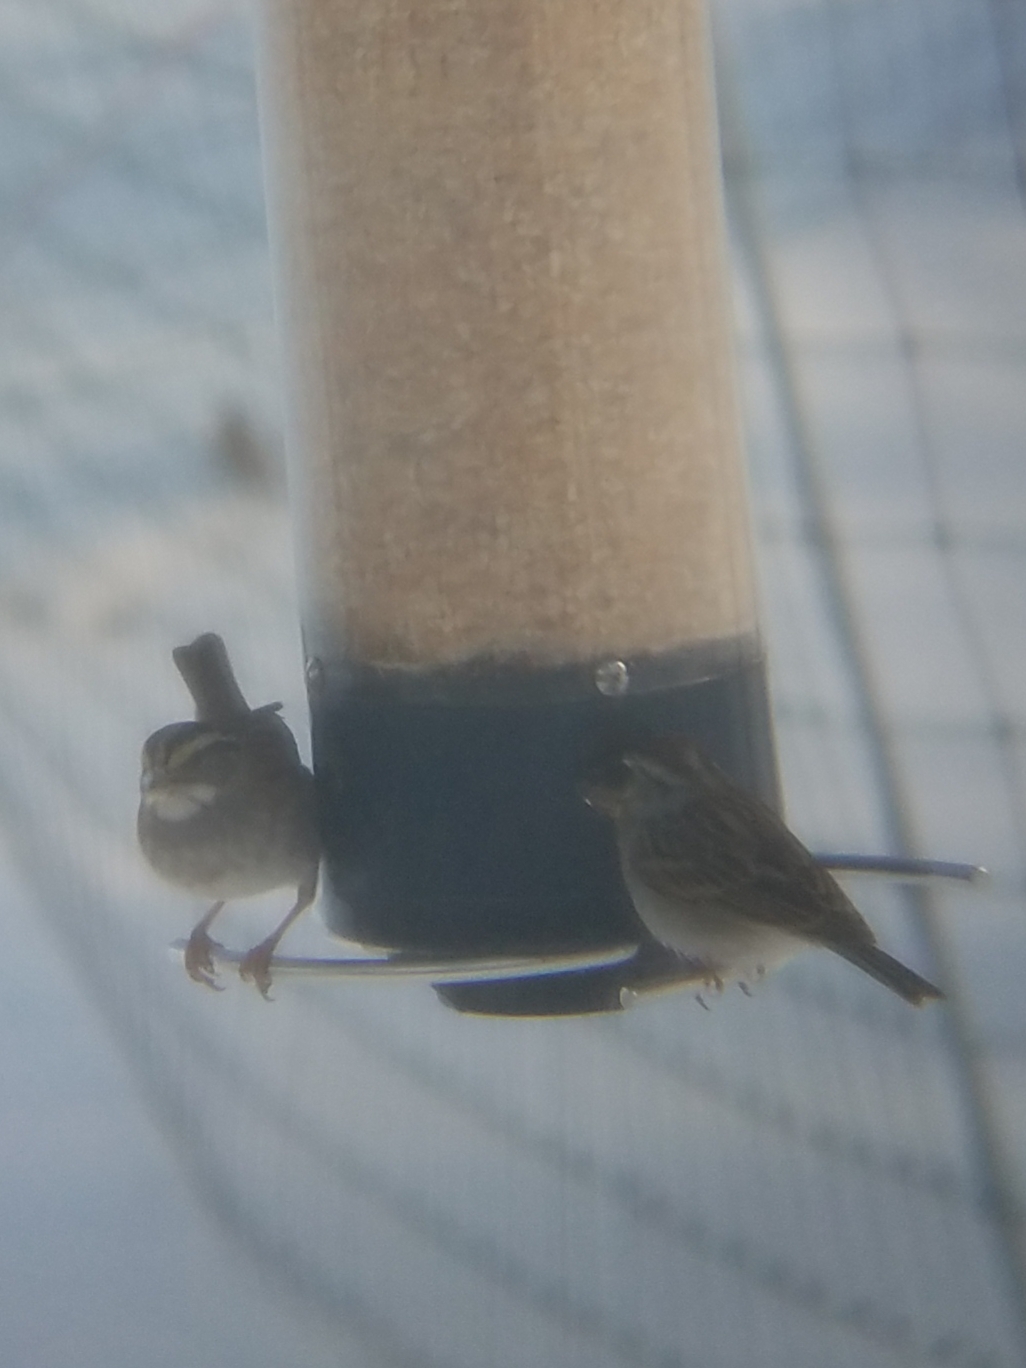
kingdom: Animalia
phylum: Chordata
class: Aves
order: Passeriformes
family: Passerellidae
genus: Spizella
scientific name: Spizella passerina
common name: Chipping sparrow
